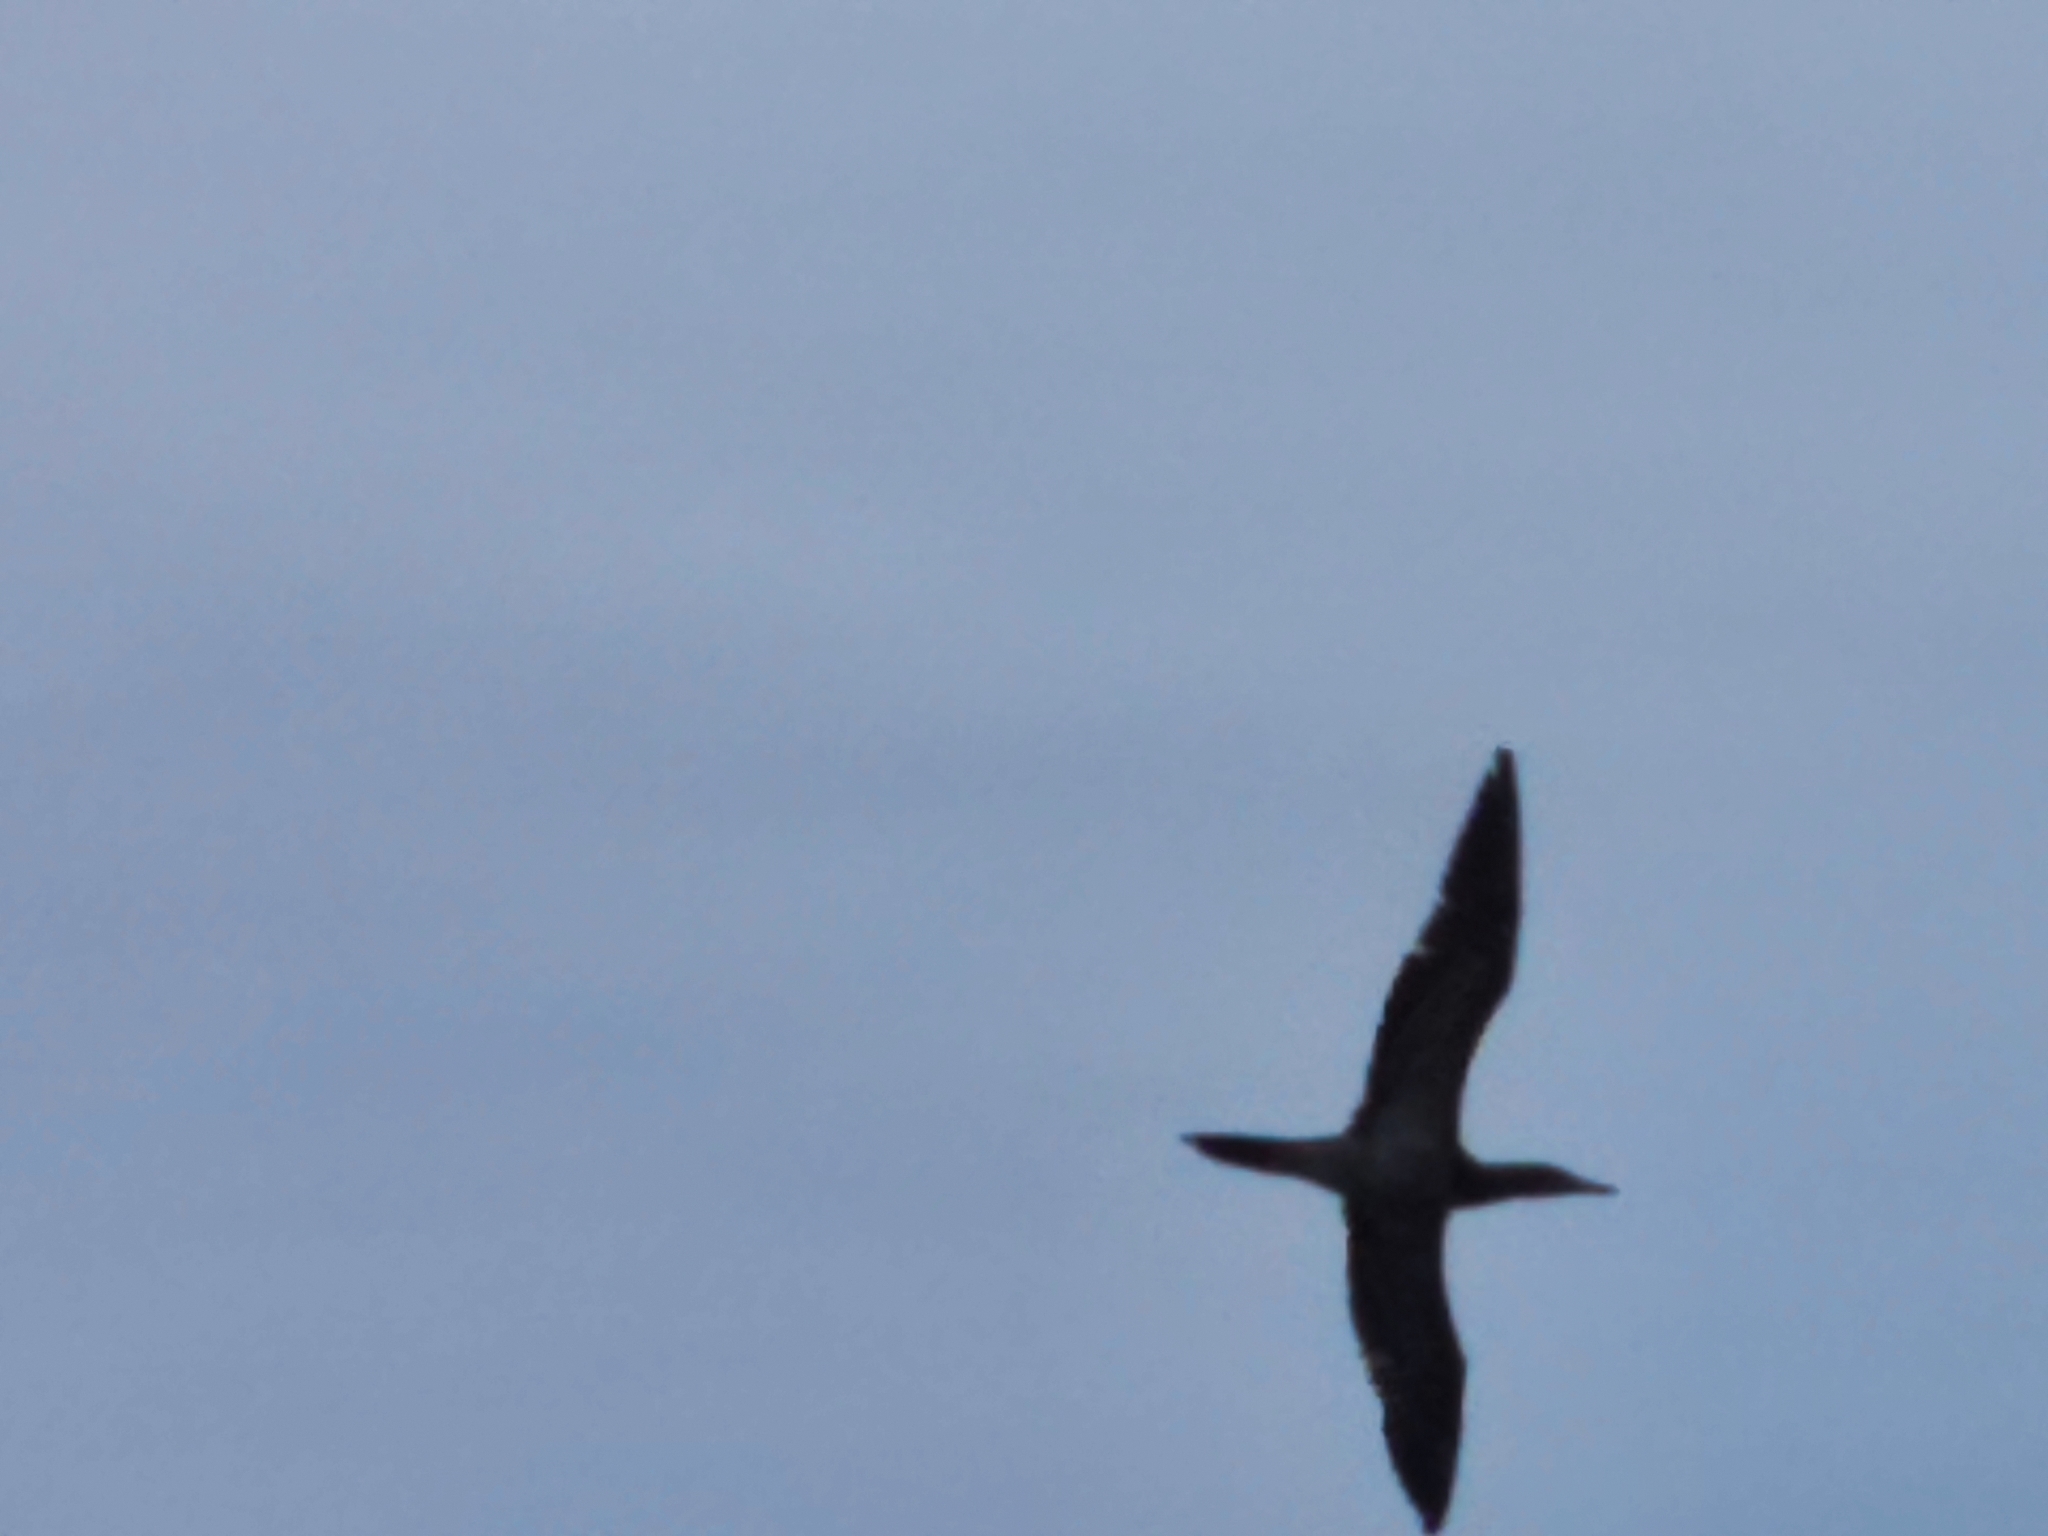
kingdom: Animalia
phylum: Chordata
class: Aves
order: Suliformes
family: Sulidae
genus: Sula
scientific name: Sula leucogaster
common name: Brown booby
